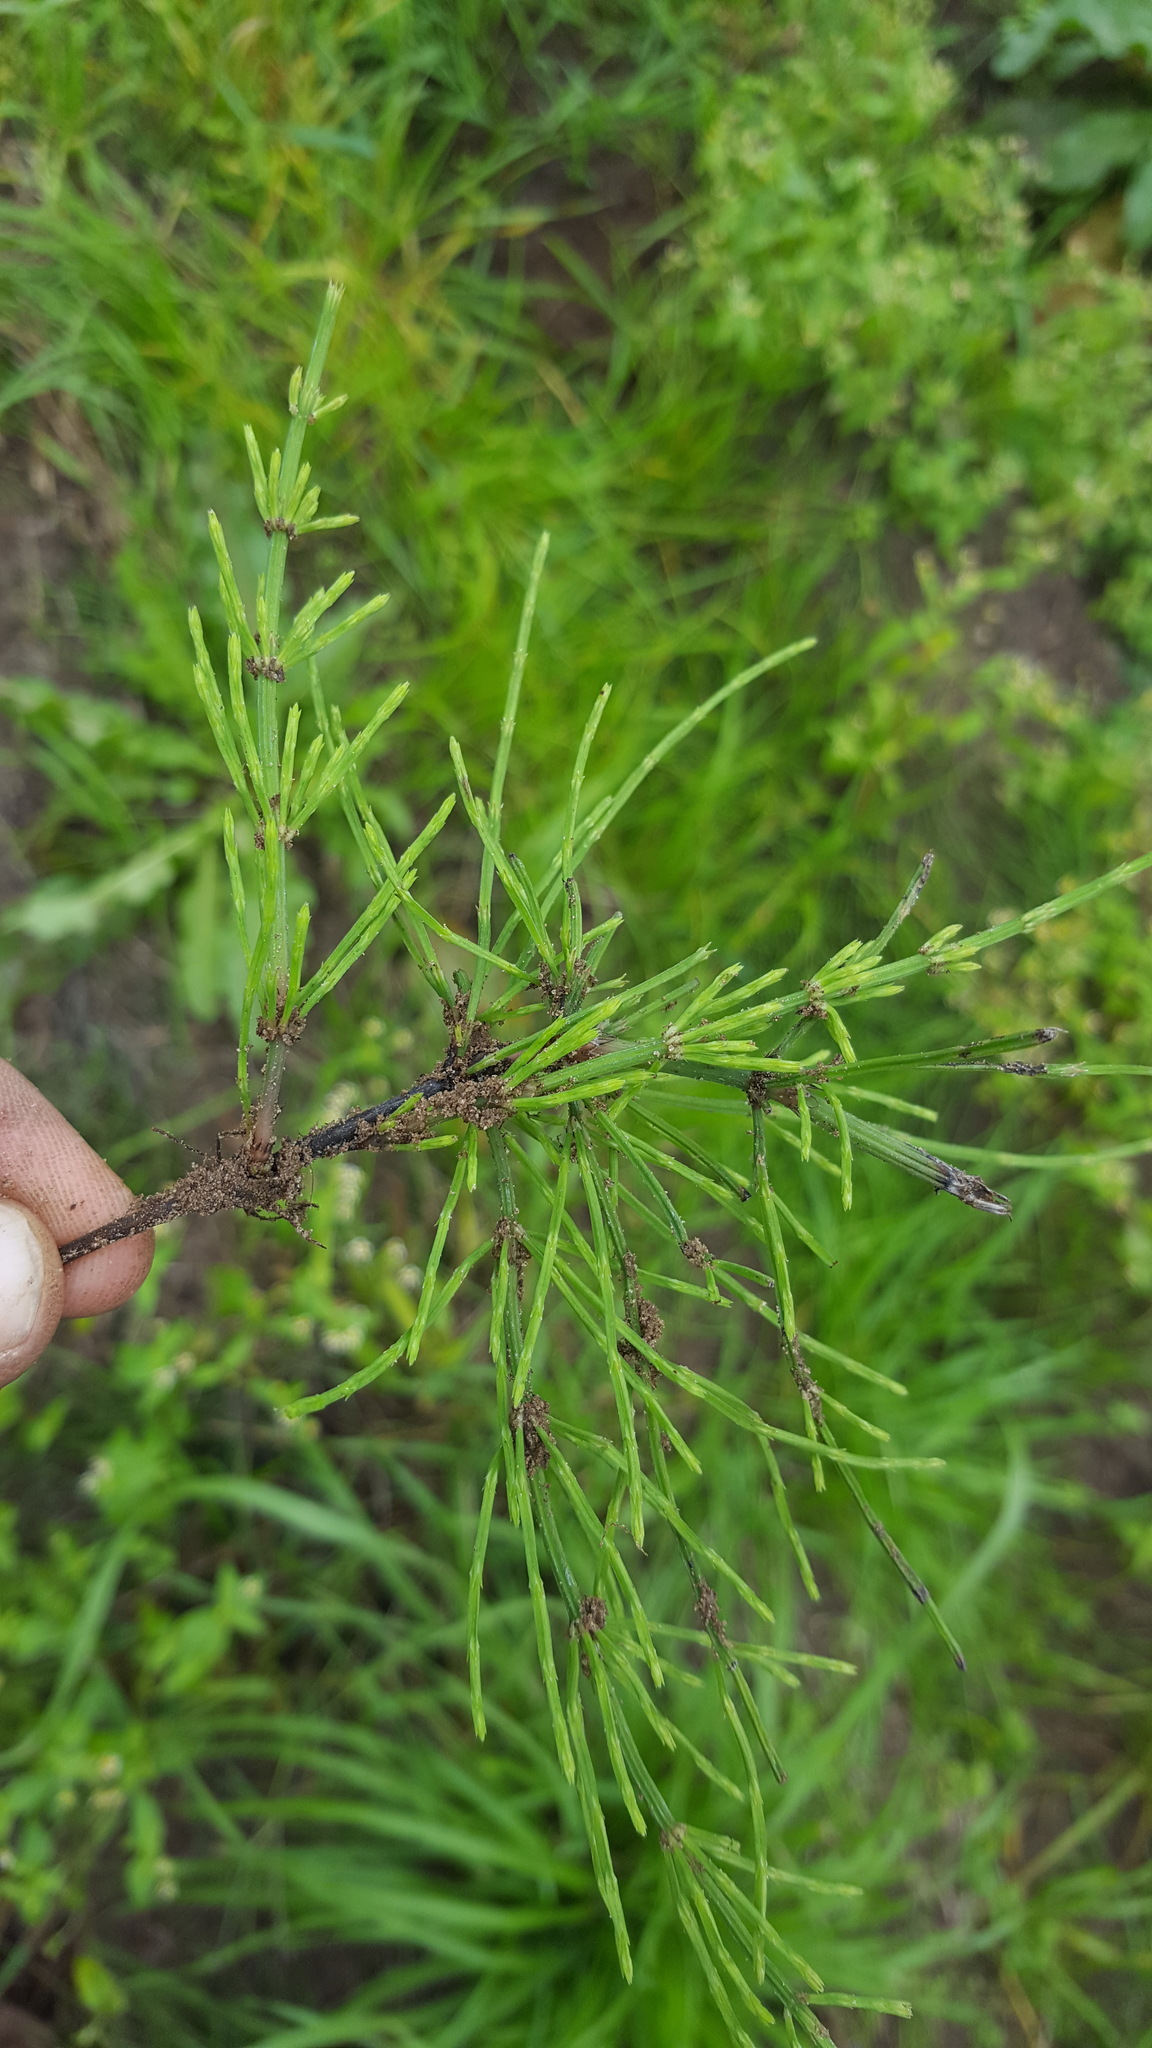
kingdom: Plantae
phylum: Tracheophyta
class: Polypodiopsida
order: Equisetales
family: Equisetaceae
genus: Equisetum
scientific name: Equisetum arvense
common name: Field horsetail
